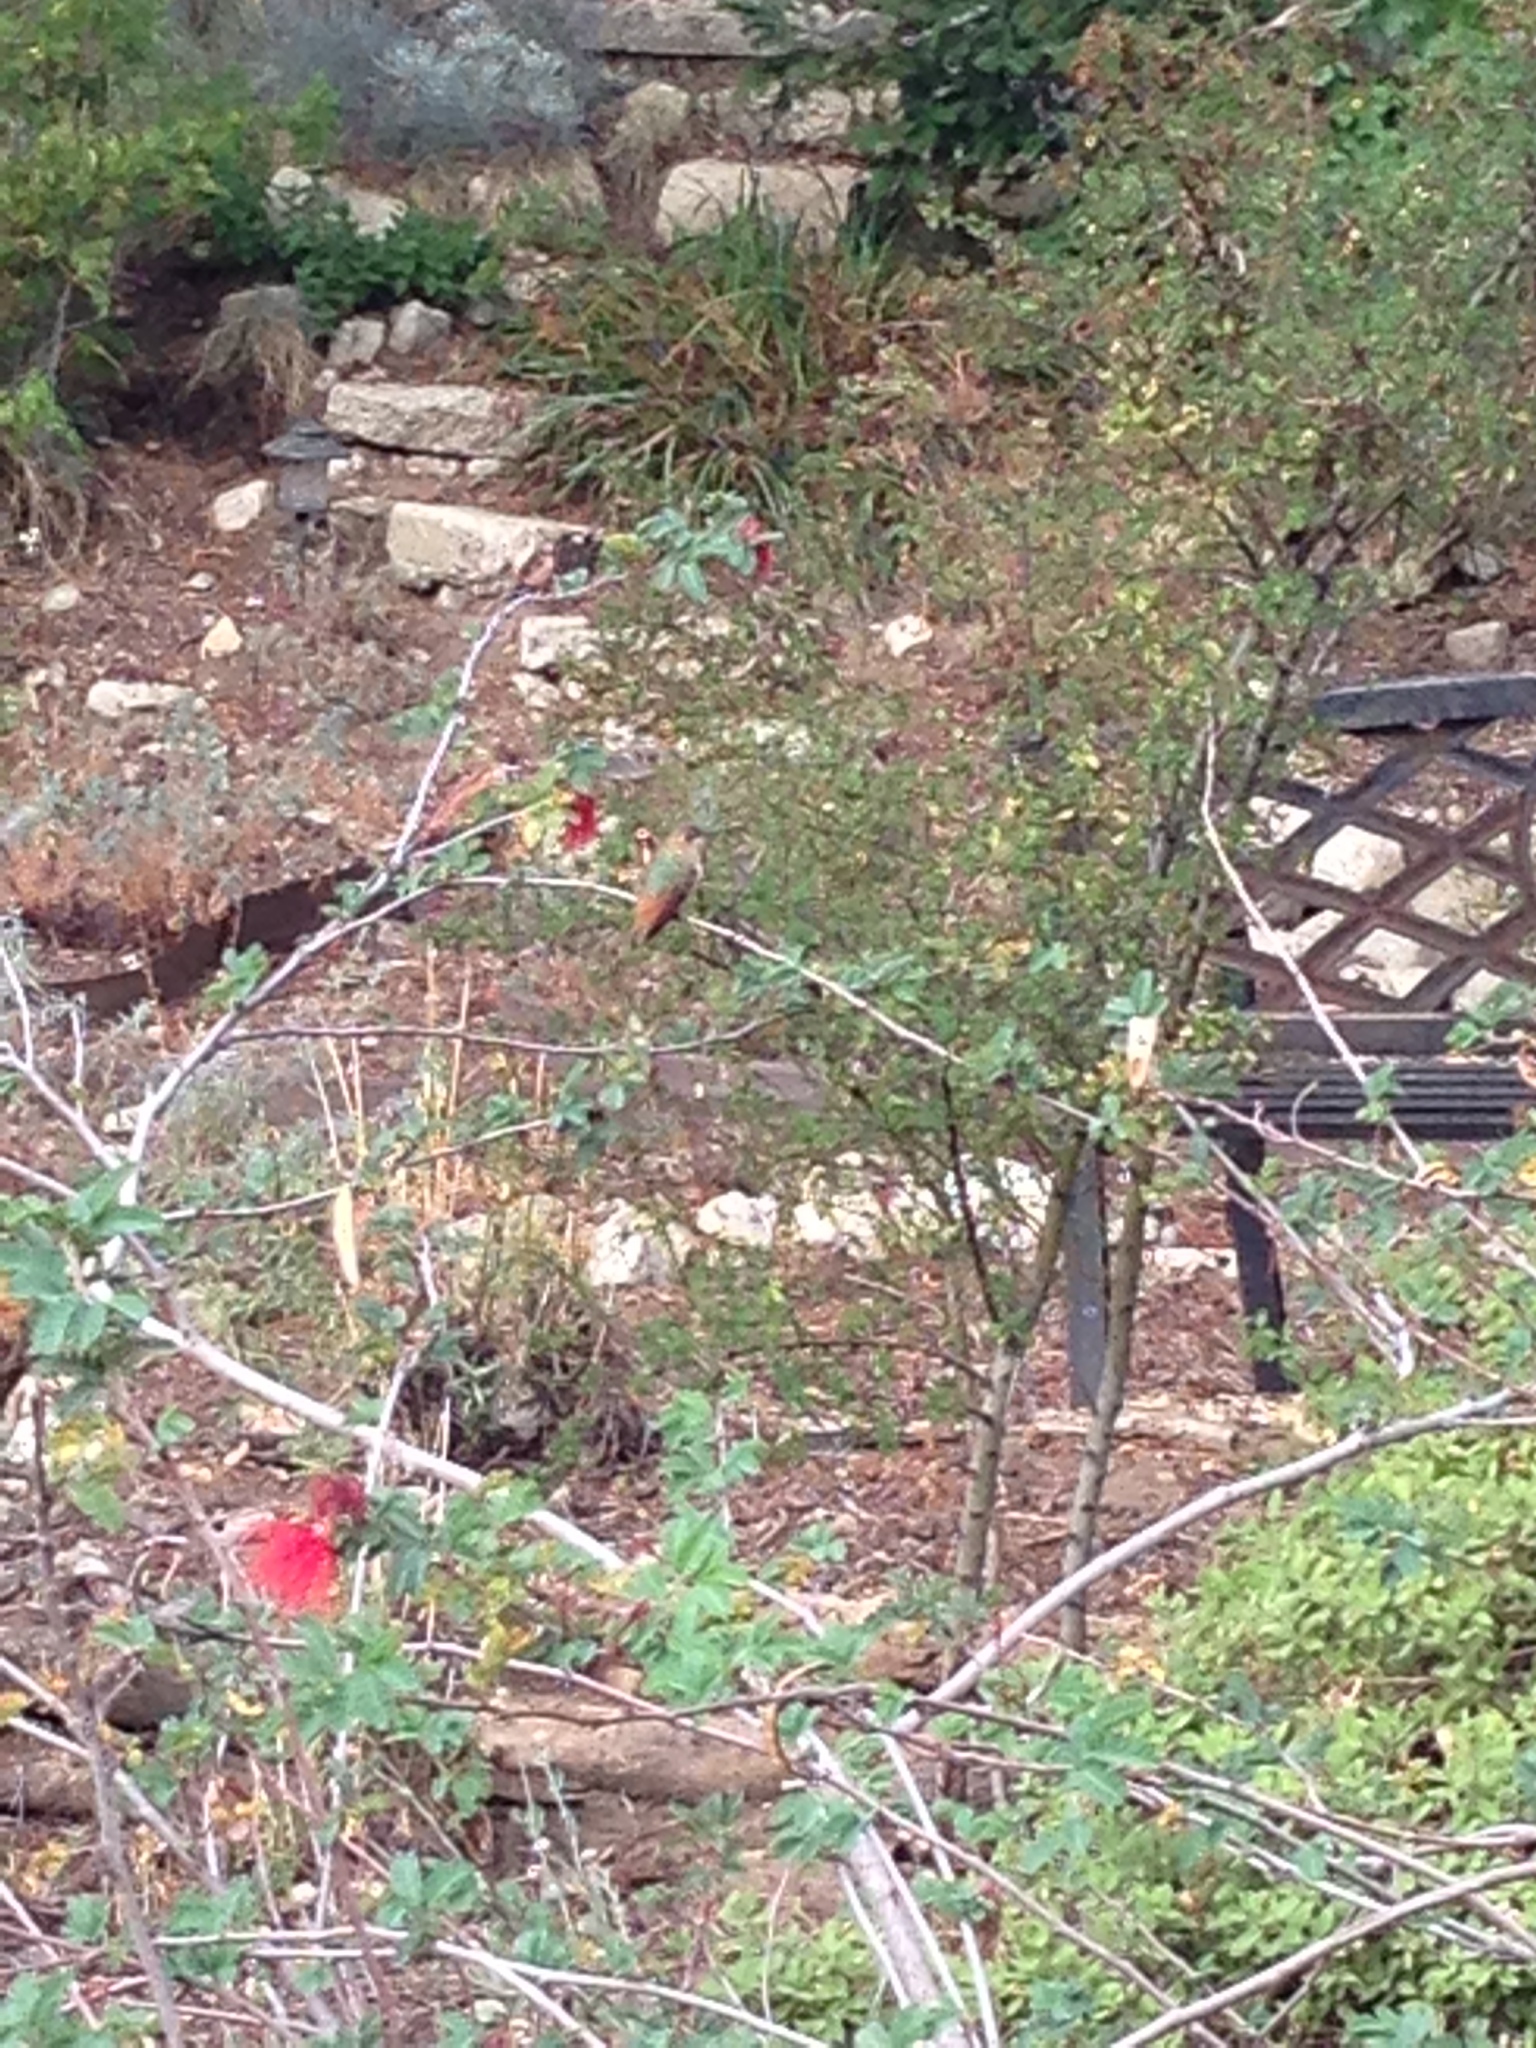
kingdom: Animalia
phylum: Chordata
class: Aves
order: Apodiformes
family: Trochilidae
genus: Selasphorus
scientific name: Selasphorus sasin
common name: Allen's hummingbird
